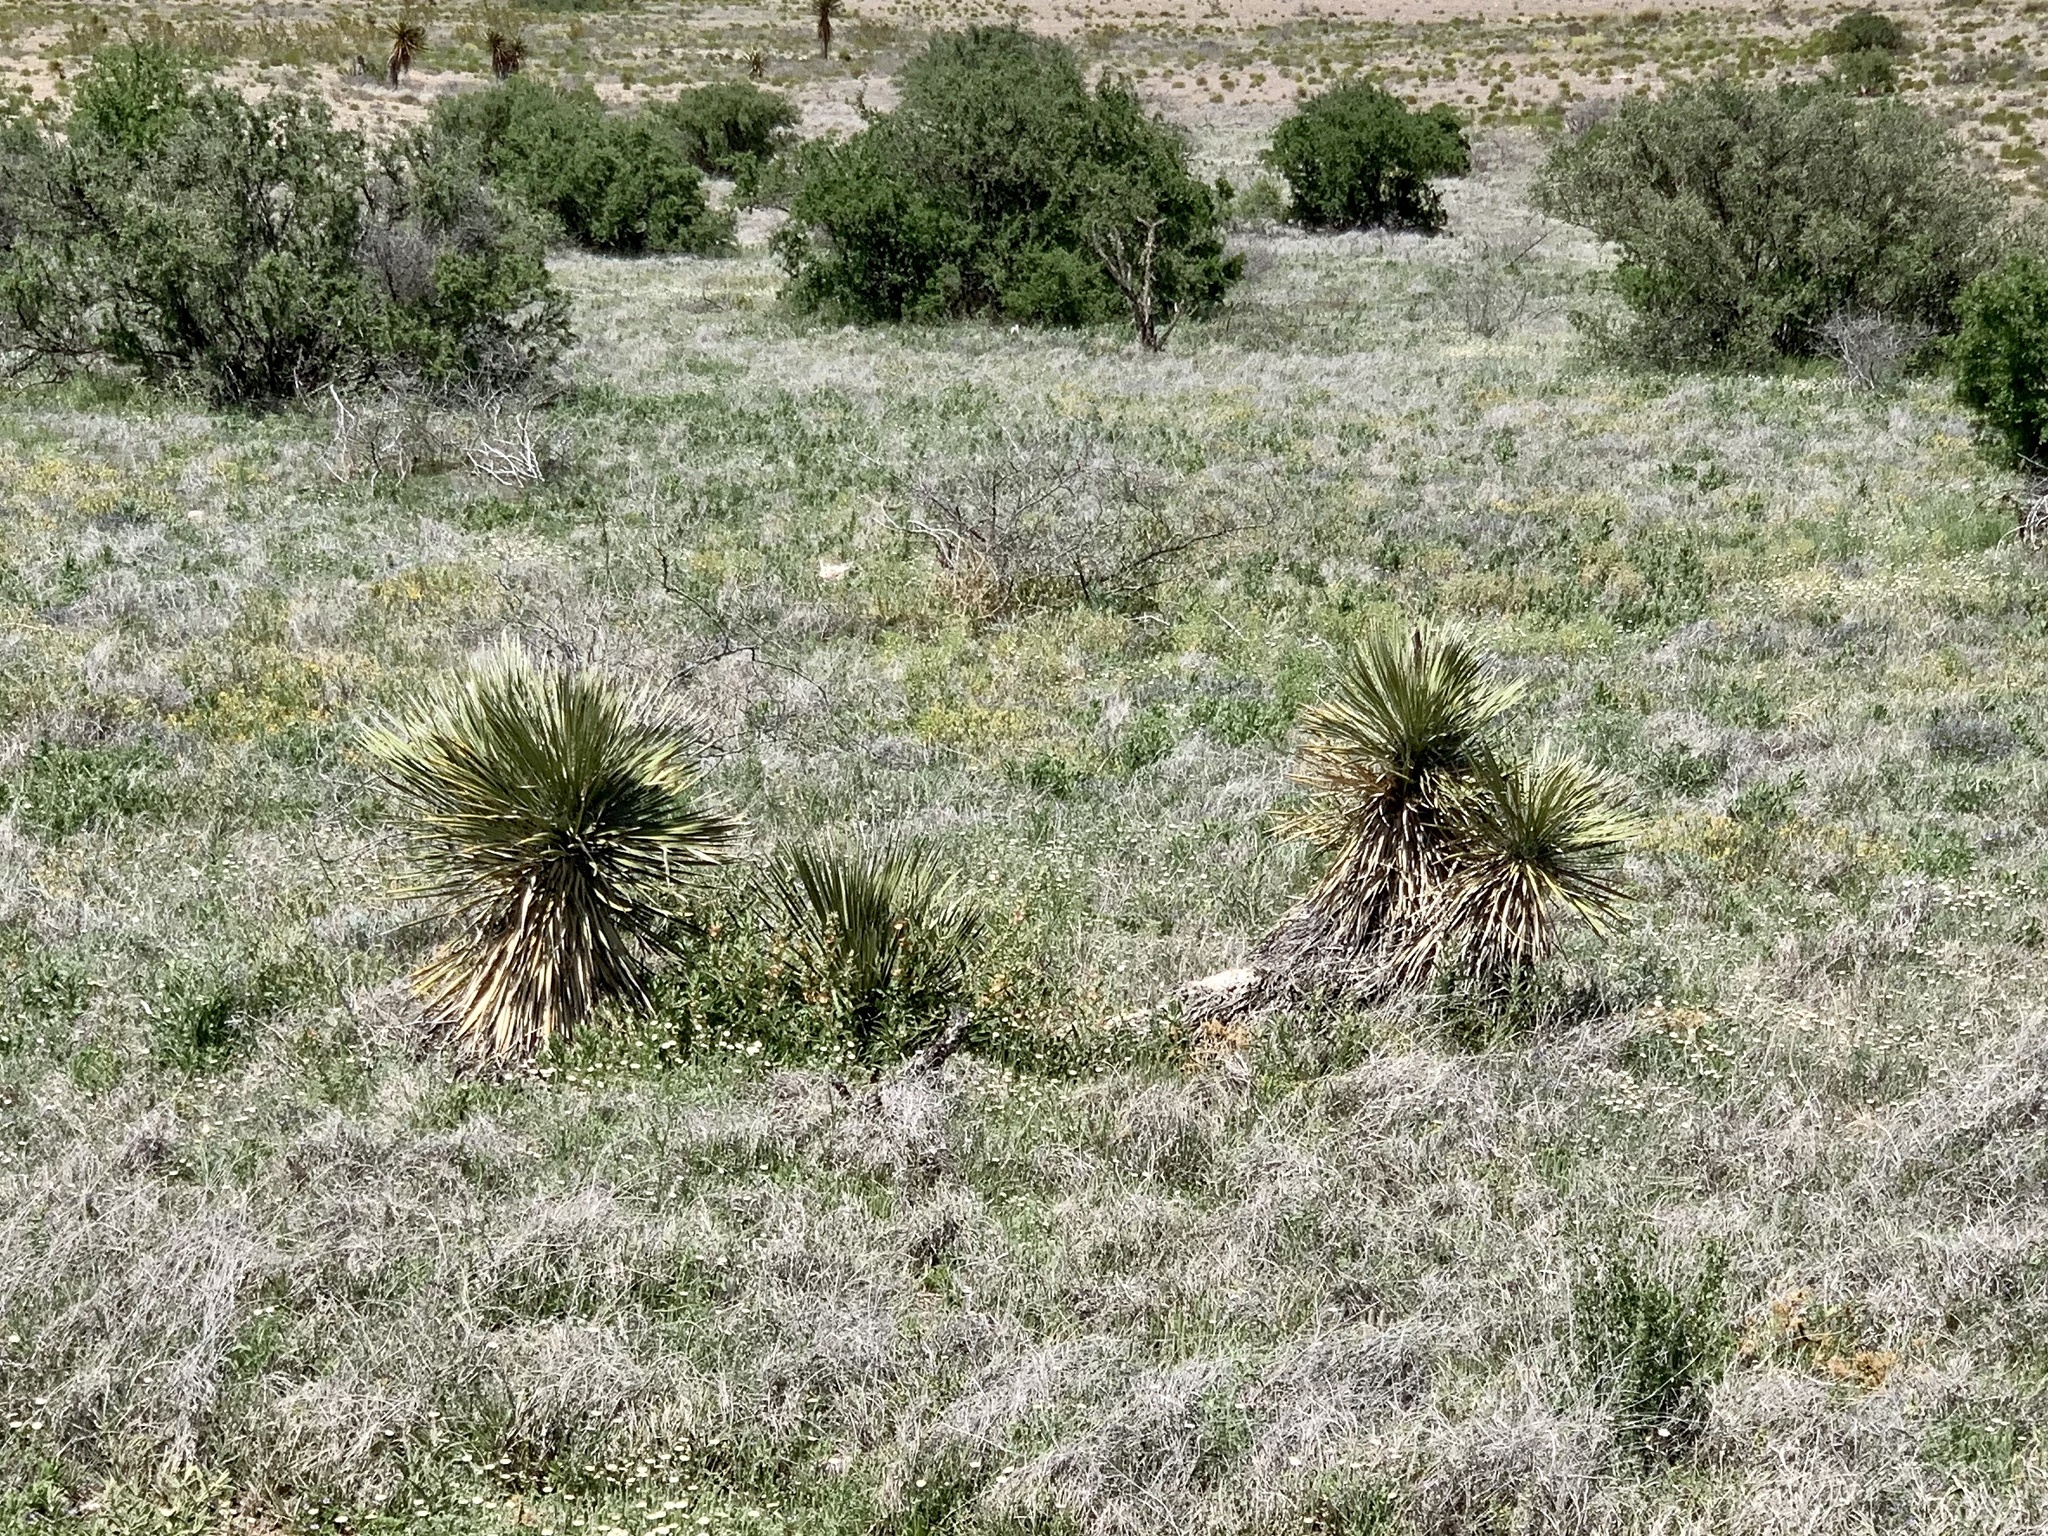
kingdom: Plantae
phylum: Tracheophyta
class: Liliopsida
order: Asparagales
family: Asparagaceae
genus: Yucca
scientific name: Yucca elata
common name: Palmella
